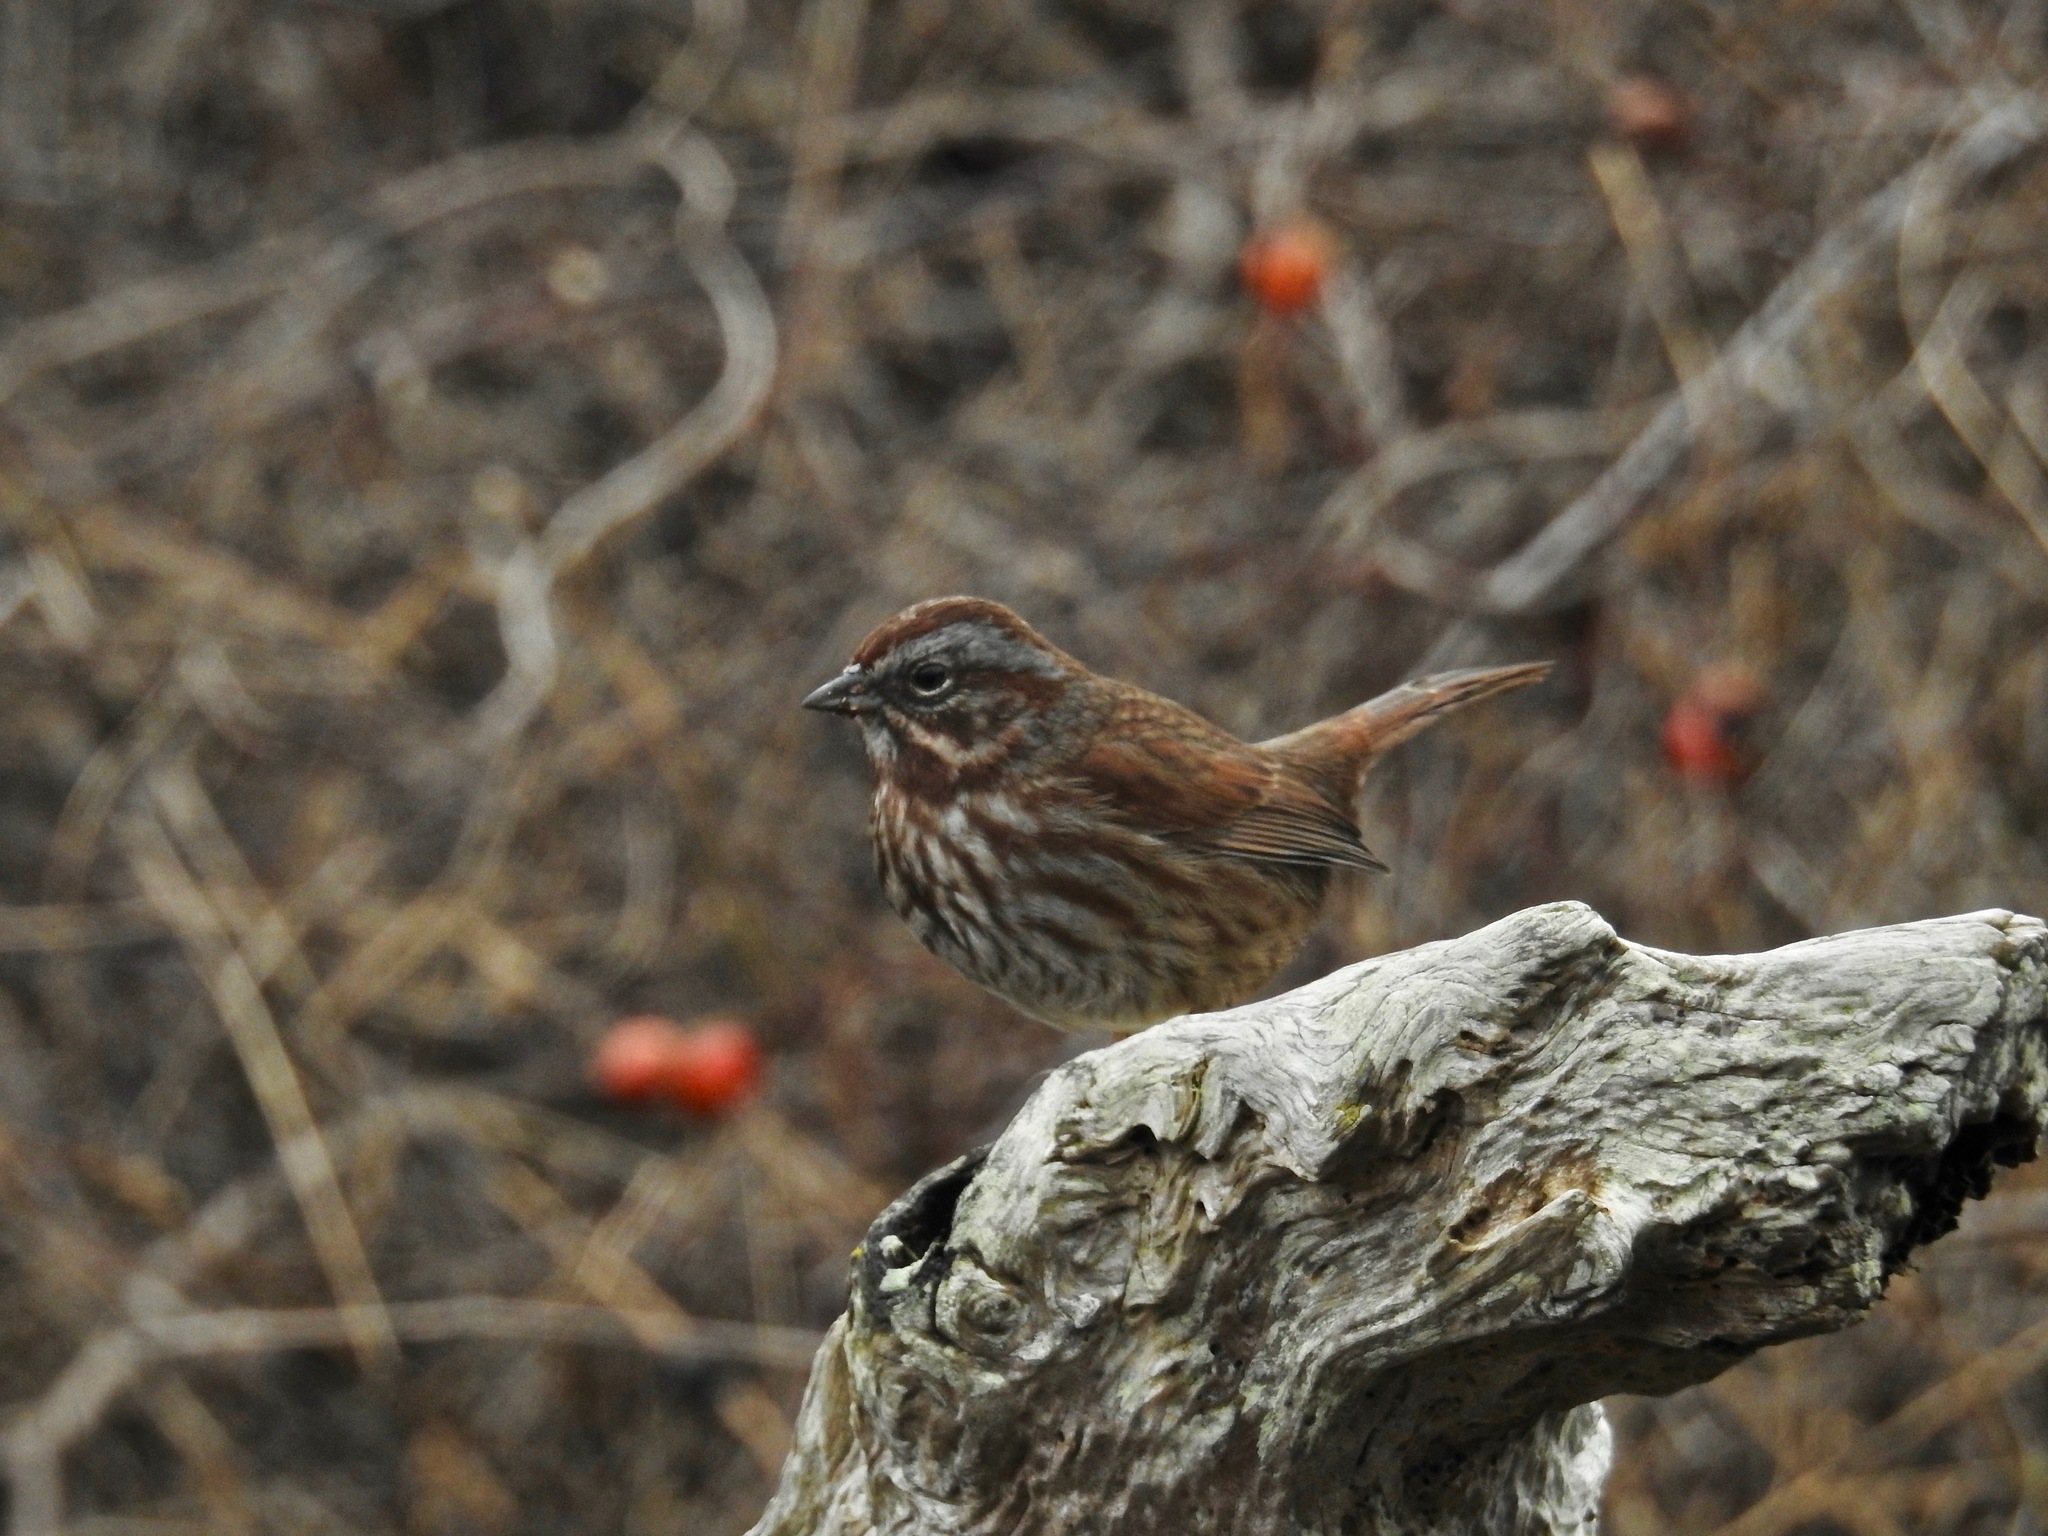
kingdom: Animalia
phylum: Chordata
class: Aves
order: Passeriformes
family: Passerellidae
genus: Melospiza
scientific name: Melospiza melodia
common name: Song sparrow
